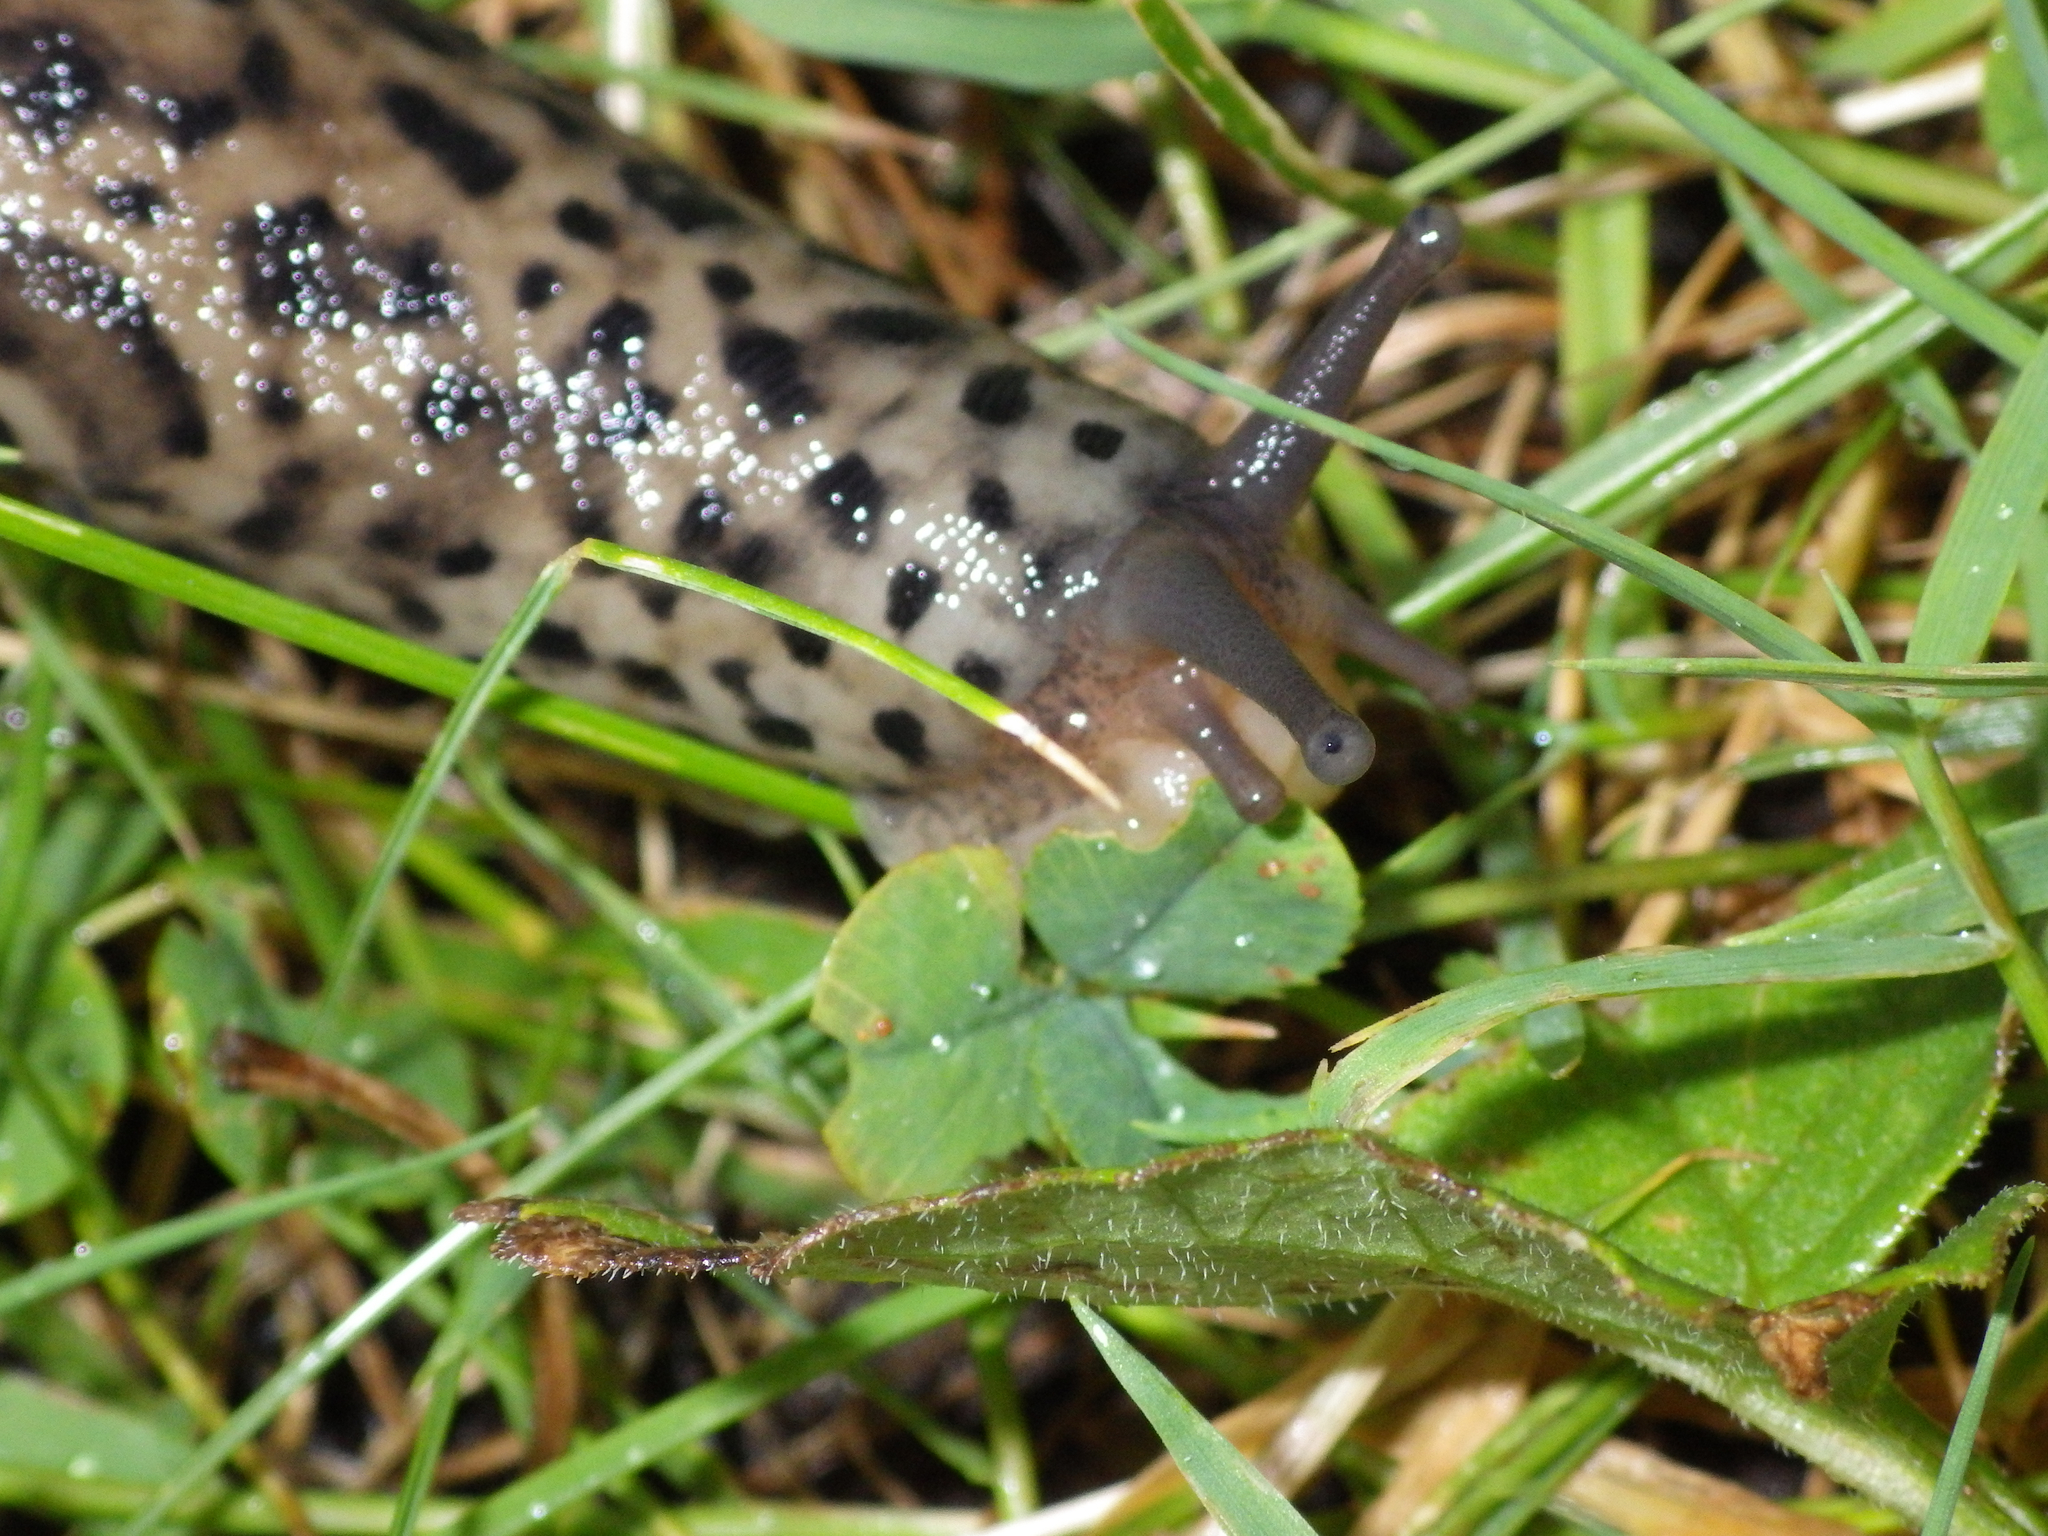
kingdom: Animalia
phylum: Mollusca
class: Gastropoda
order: Stylommatophora
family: Limacidae
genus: Limax
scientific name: Limax maximus
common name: Great grey slug
